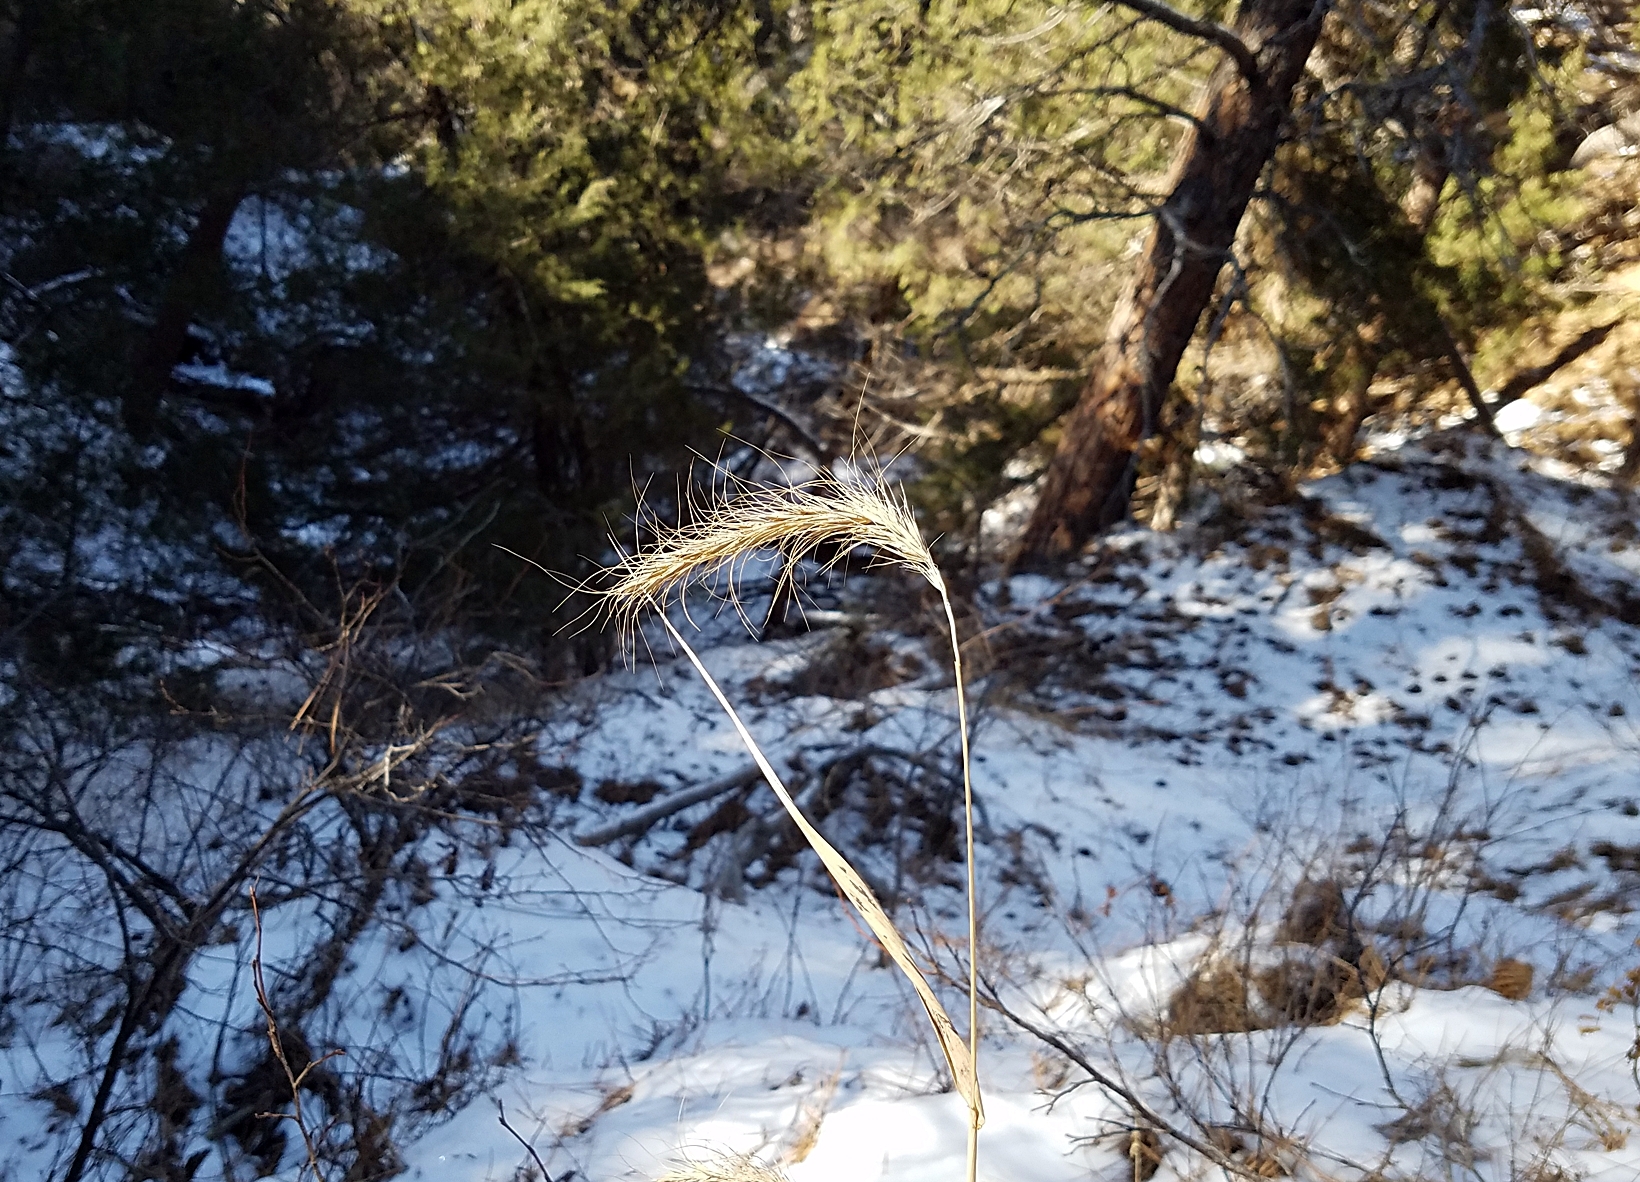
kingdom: Plantae
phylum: Tracheophyta
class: Liliopsida
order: Poales
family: Poaceae
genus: Elymus
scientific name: Elymus canadensis
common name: Canada wild rye
